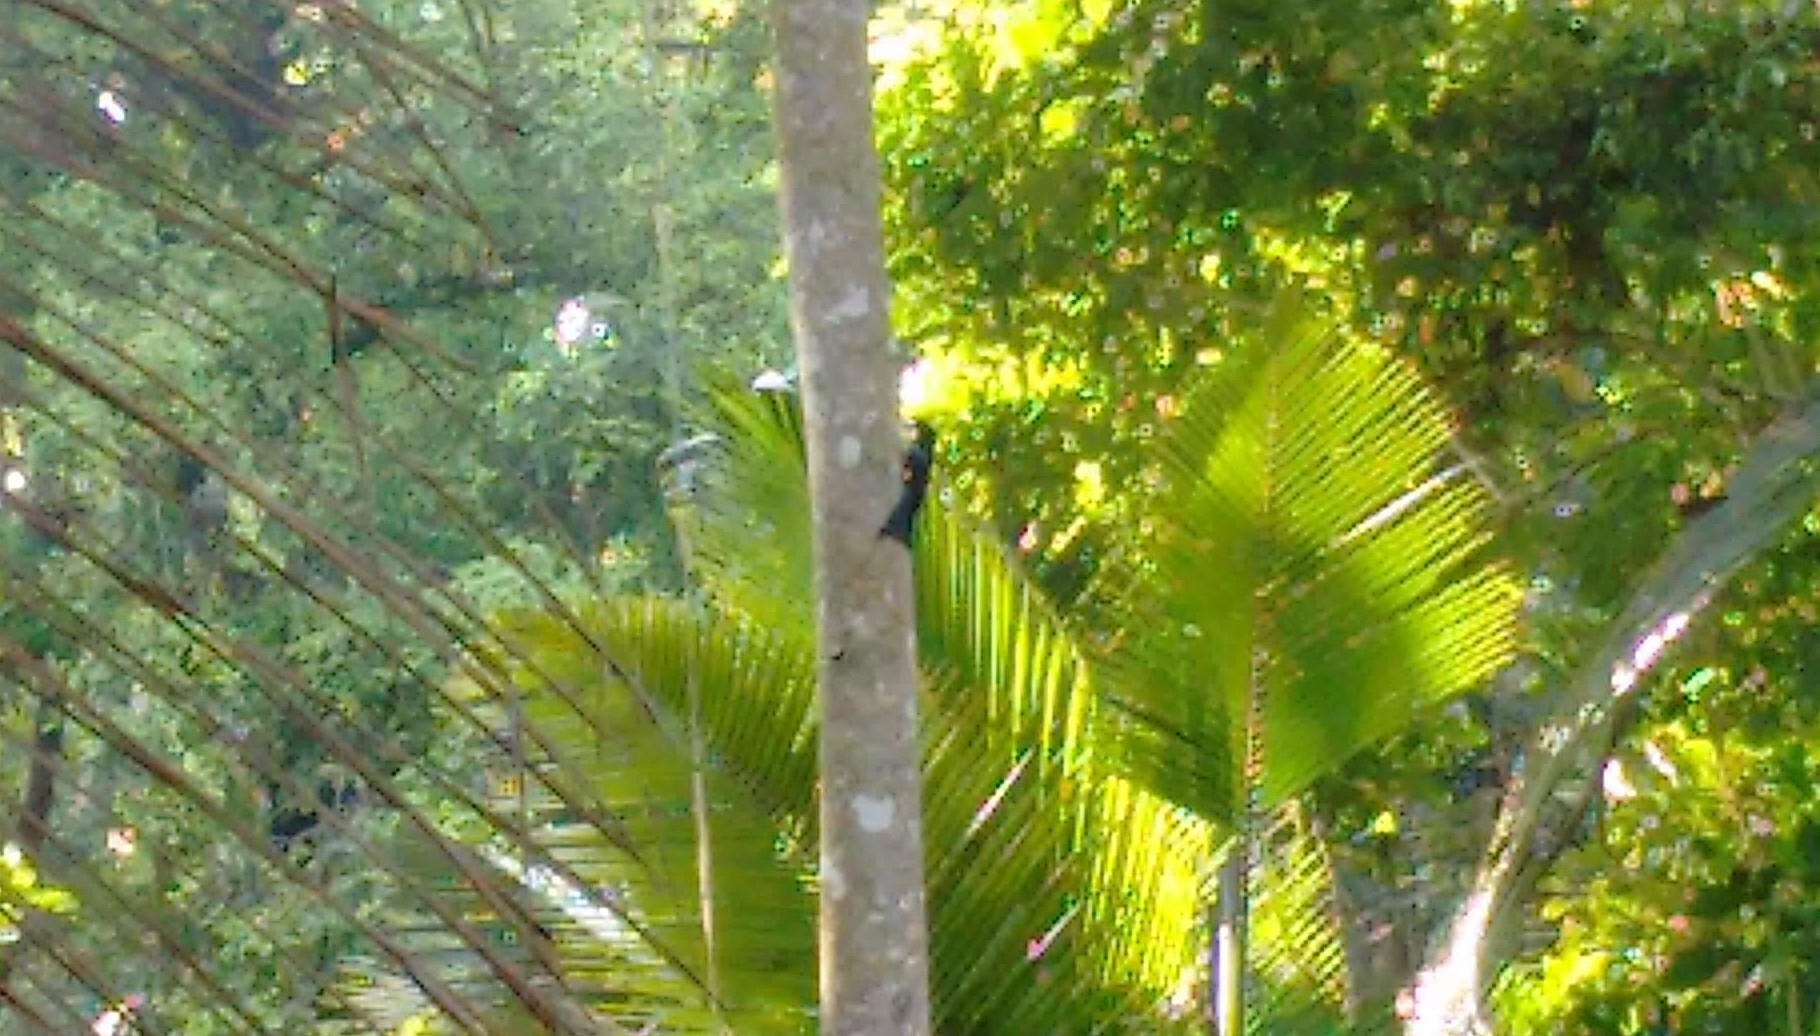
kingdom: Animalia
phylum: Chordata
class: Aves
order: Passeriformes
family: Dicruridae
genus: Dicrurus
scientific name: Dicrurus paradiseus
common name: Greater racket-tailed drongo
